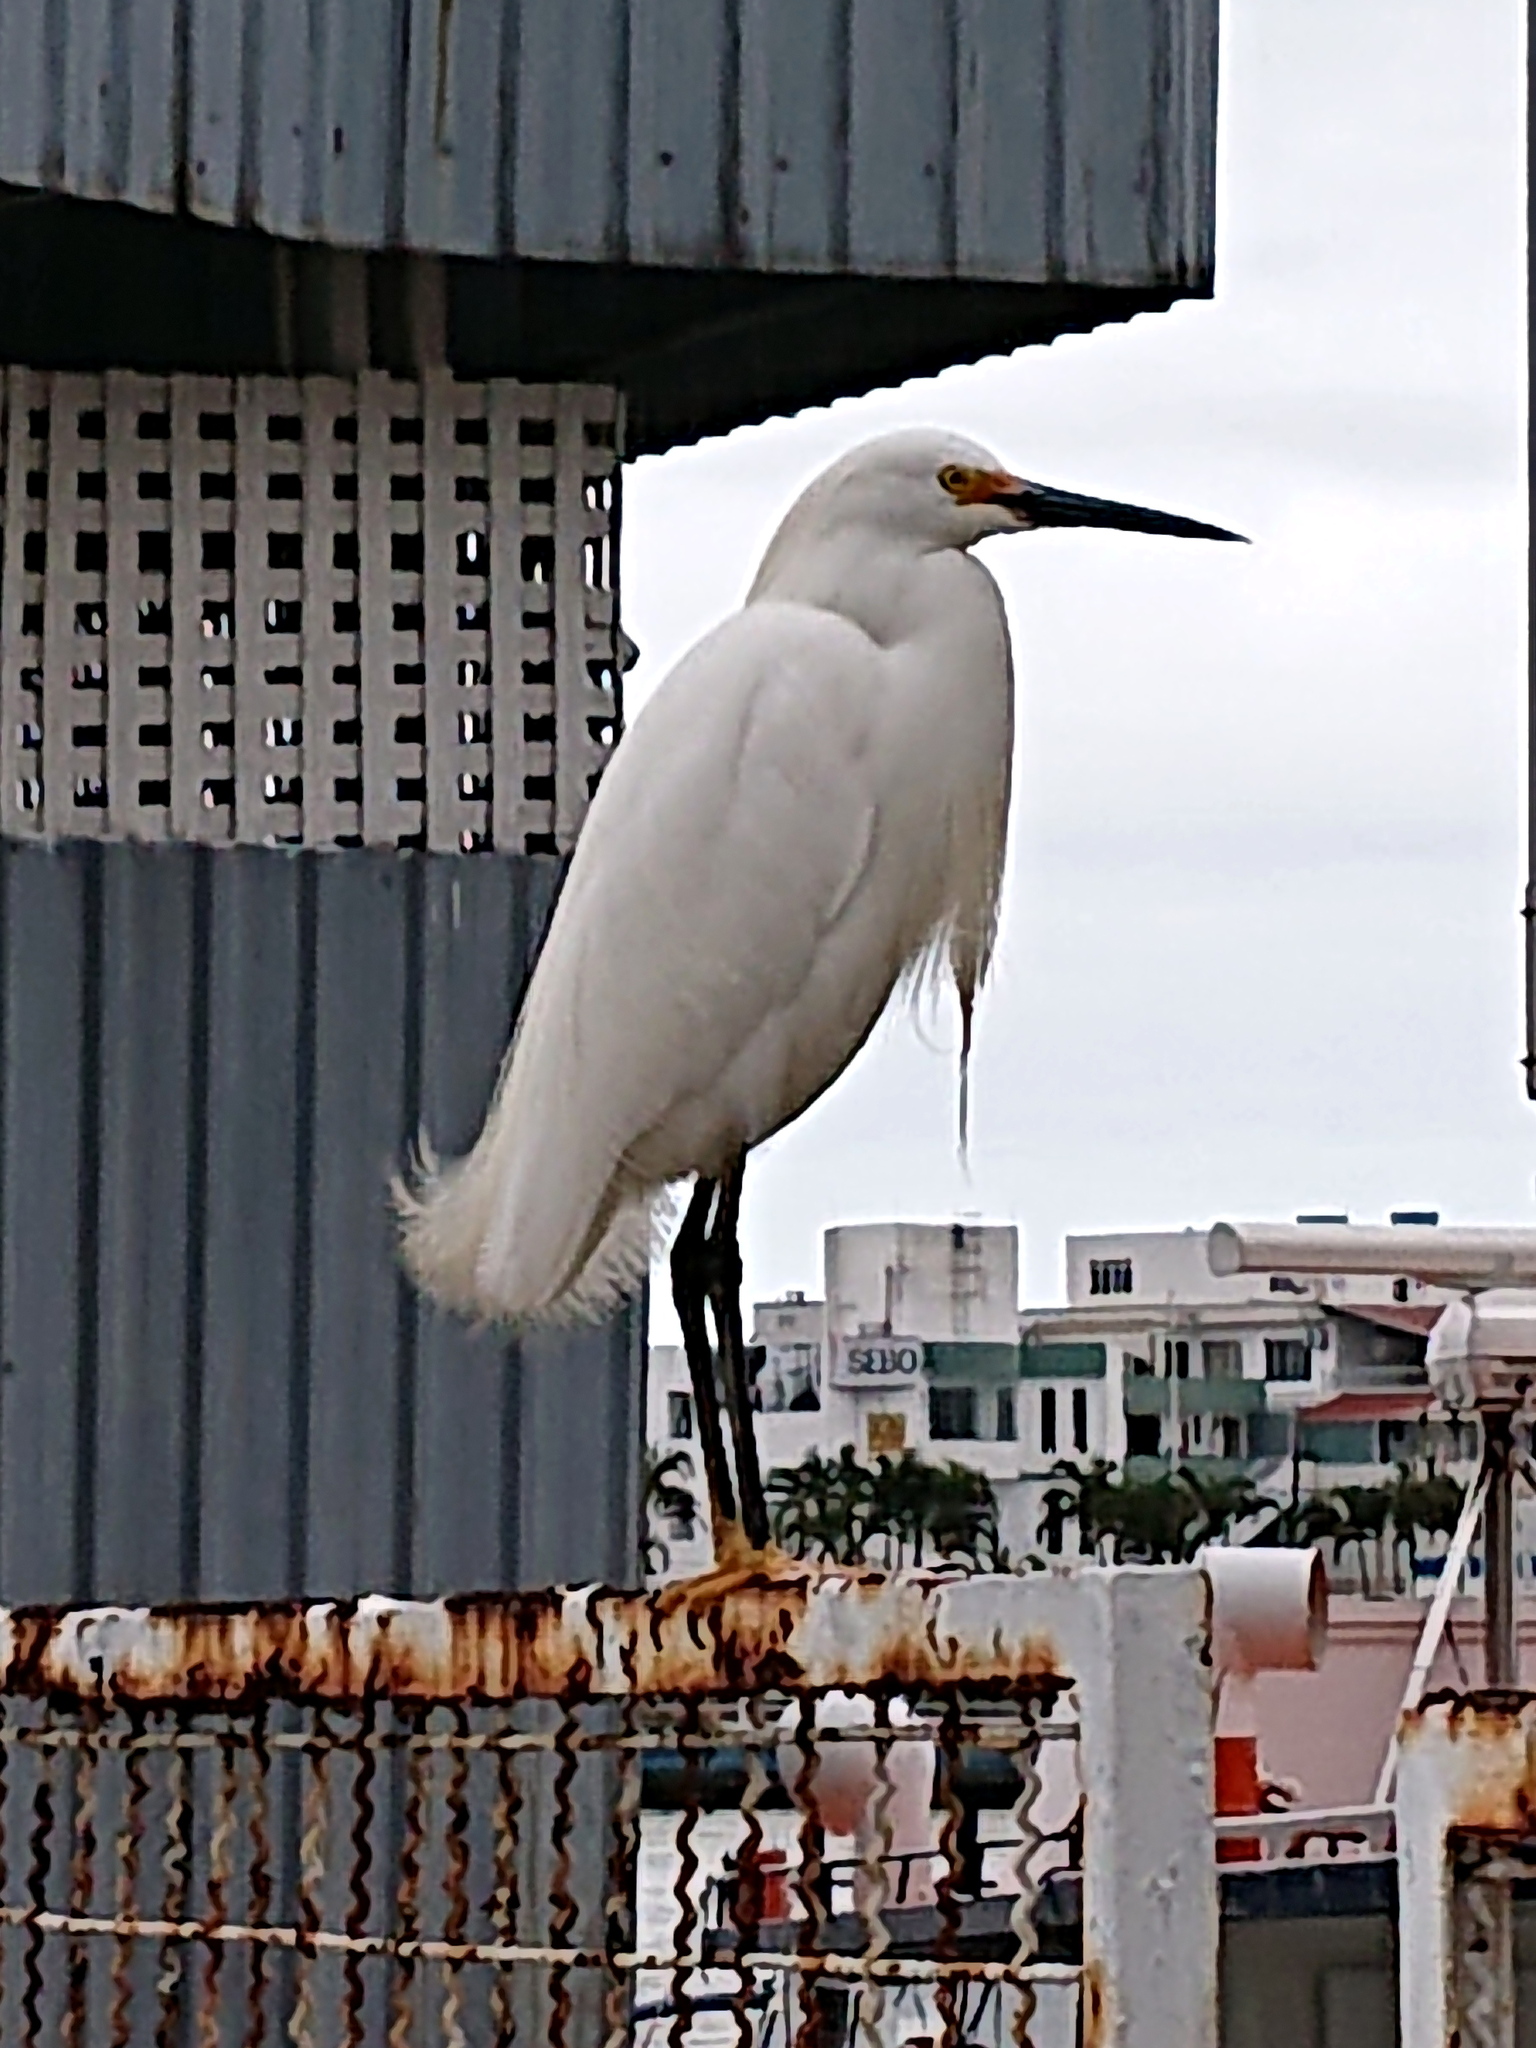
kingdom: Animalia
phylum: Chordata
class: Aves
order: Pelecaniformes
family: Ardeidae
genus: Egretta
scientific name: Egretta thula
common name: Snowy egret
